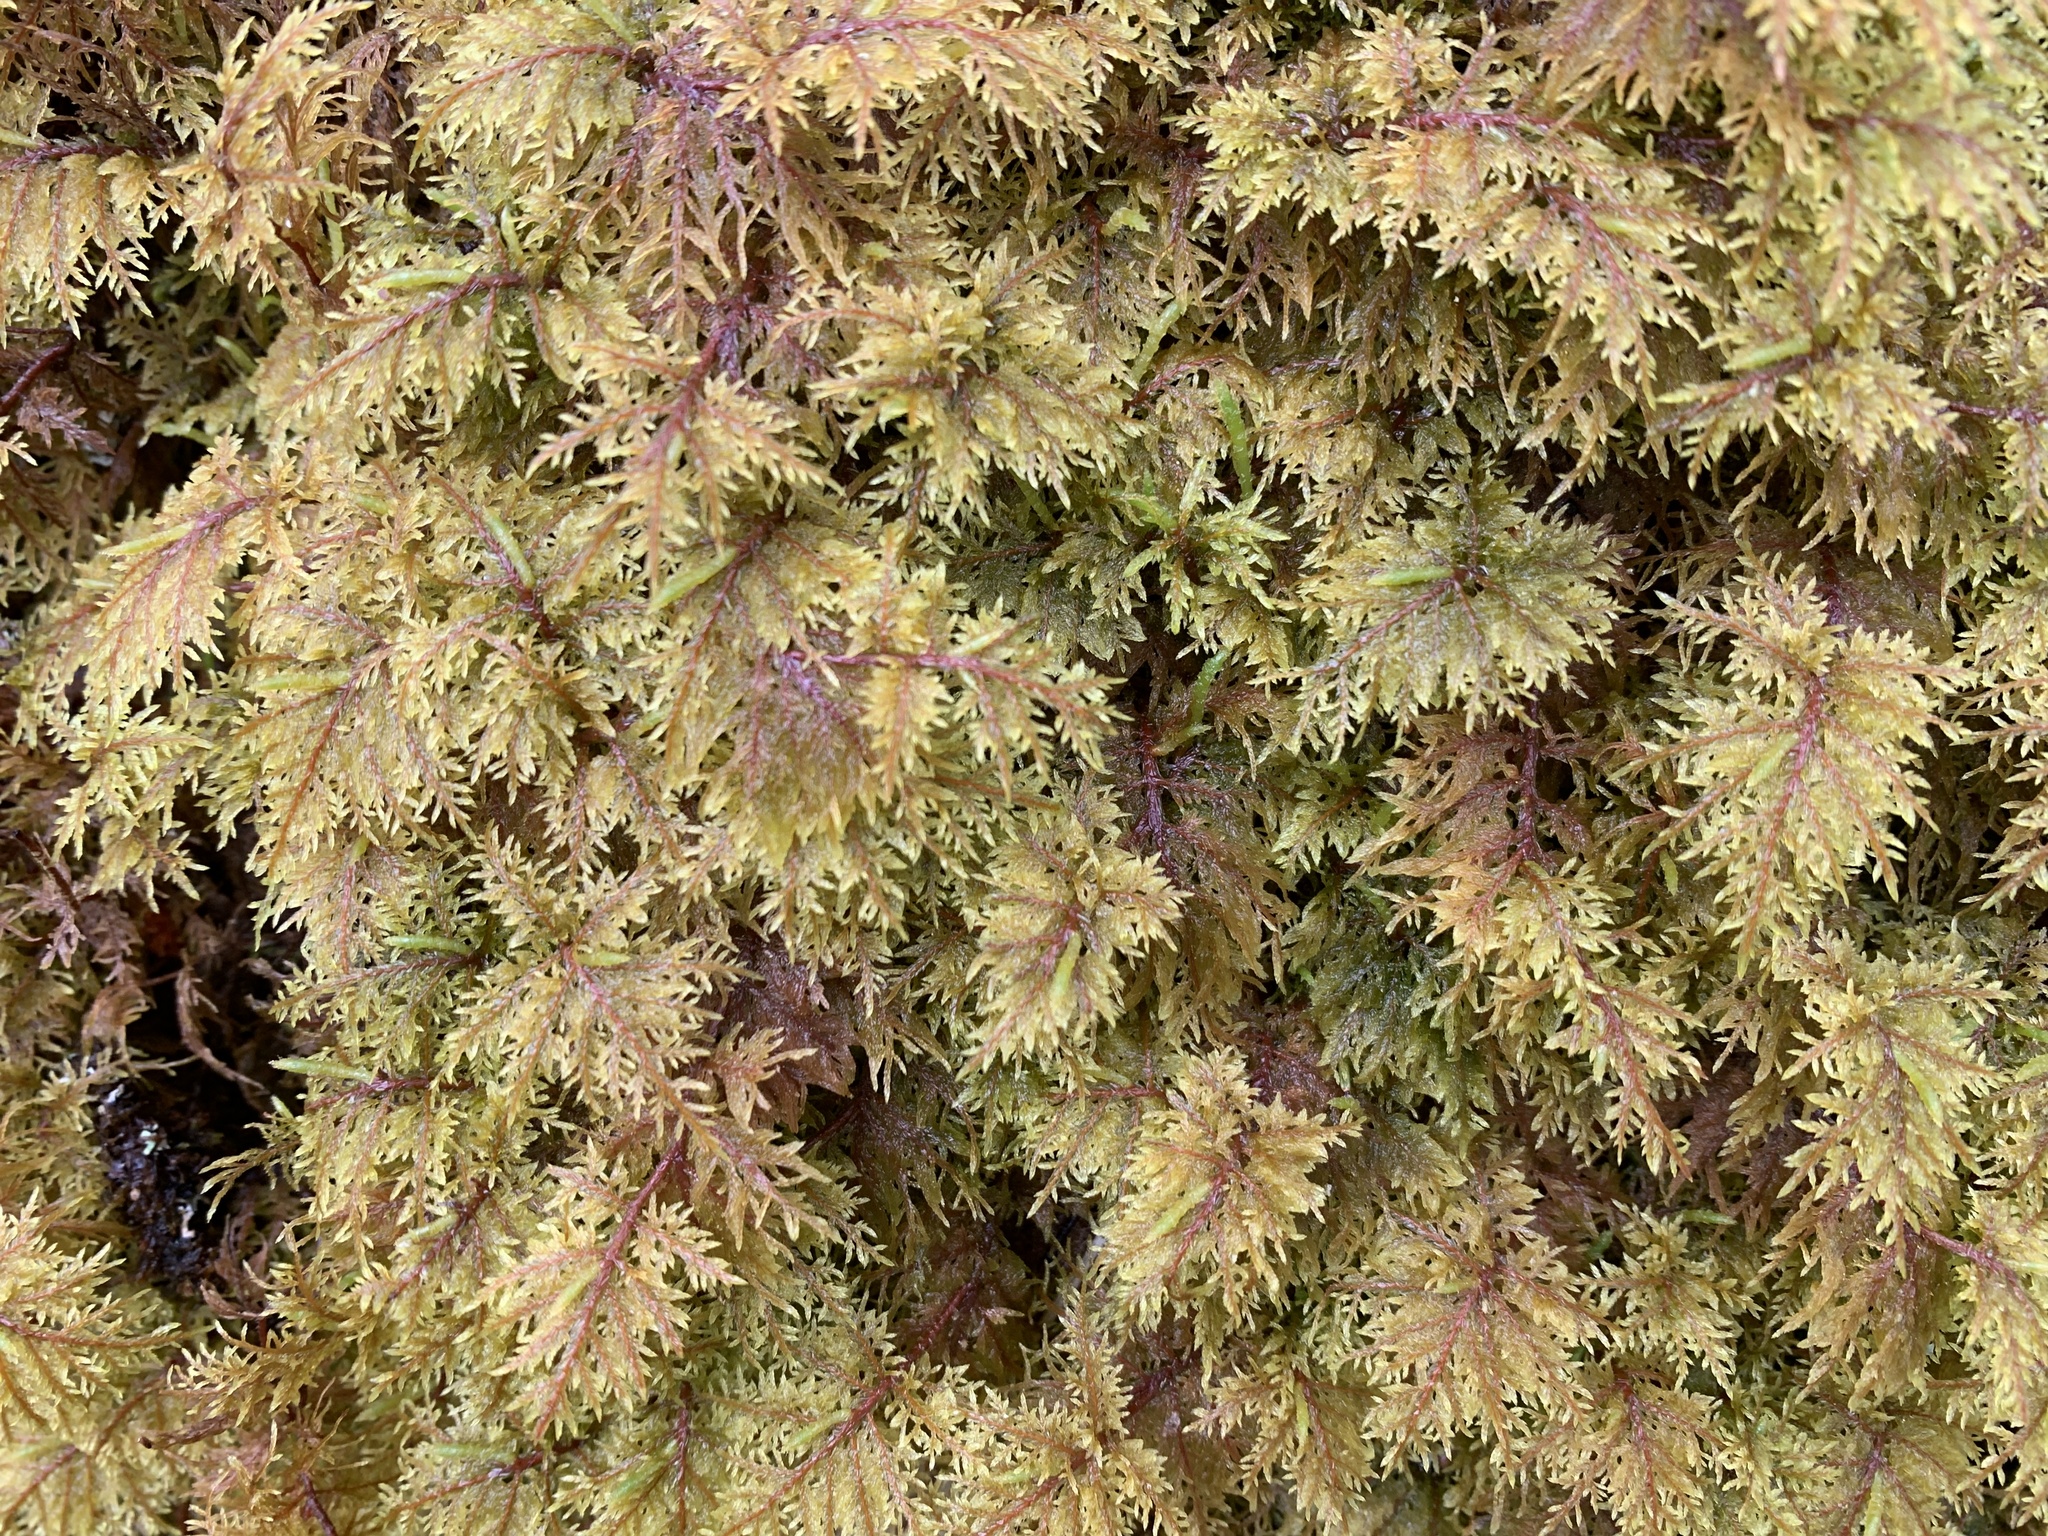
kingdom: Plantae
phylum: Bryophyta
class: Bryopsida
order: Hypnales
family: Hylocomiaceae
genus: Hylocomium
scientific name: Hylocomium splendens
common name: Stairstep moss
